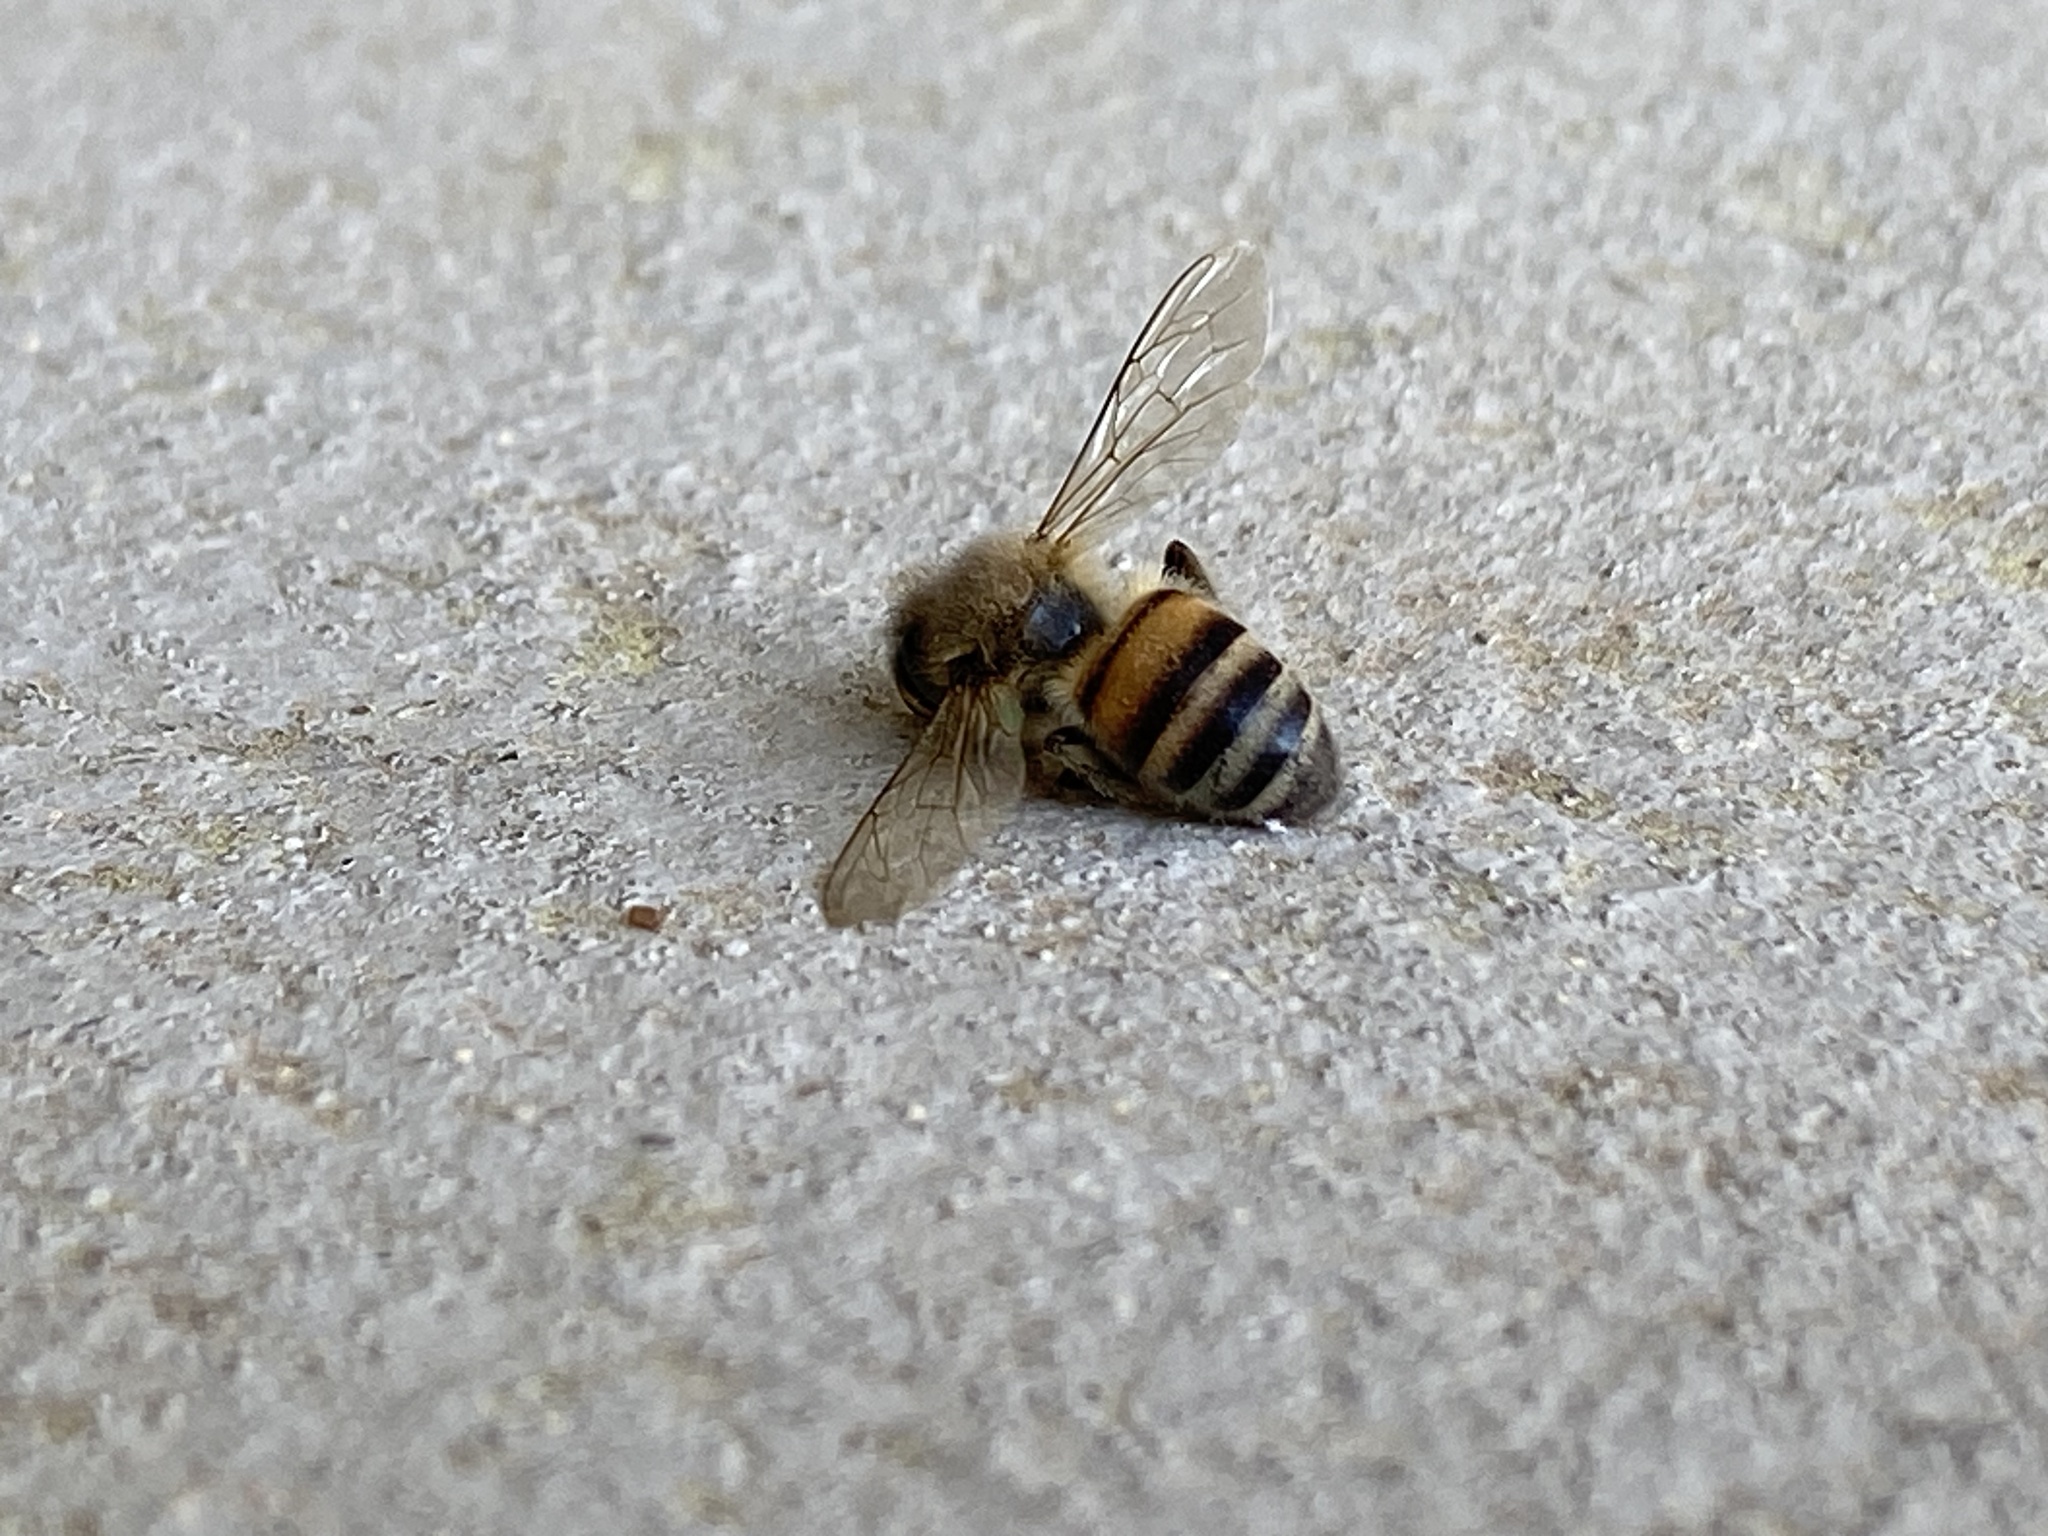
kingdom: Animalia
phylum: Arthropoda
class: Insecta
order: Hymenoptera
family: Apidae
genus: Apis
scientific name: Apis mellifera
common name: Honey bee
